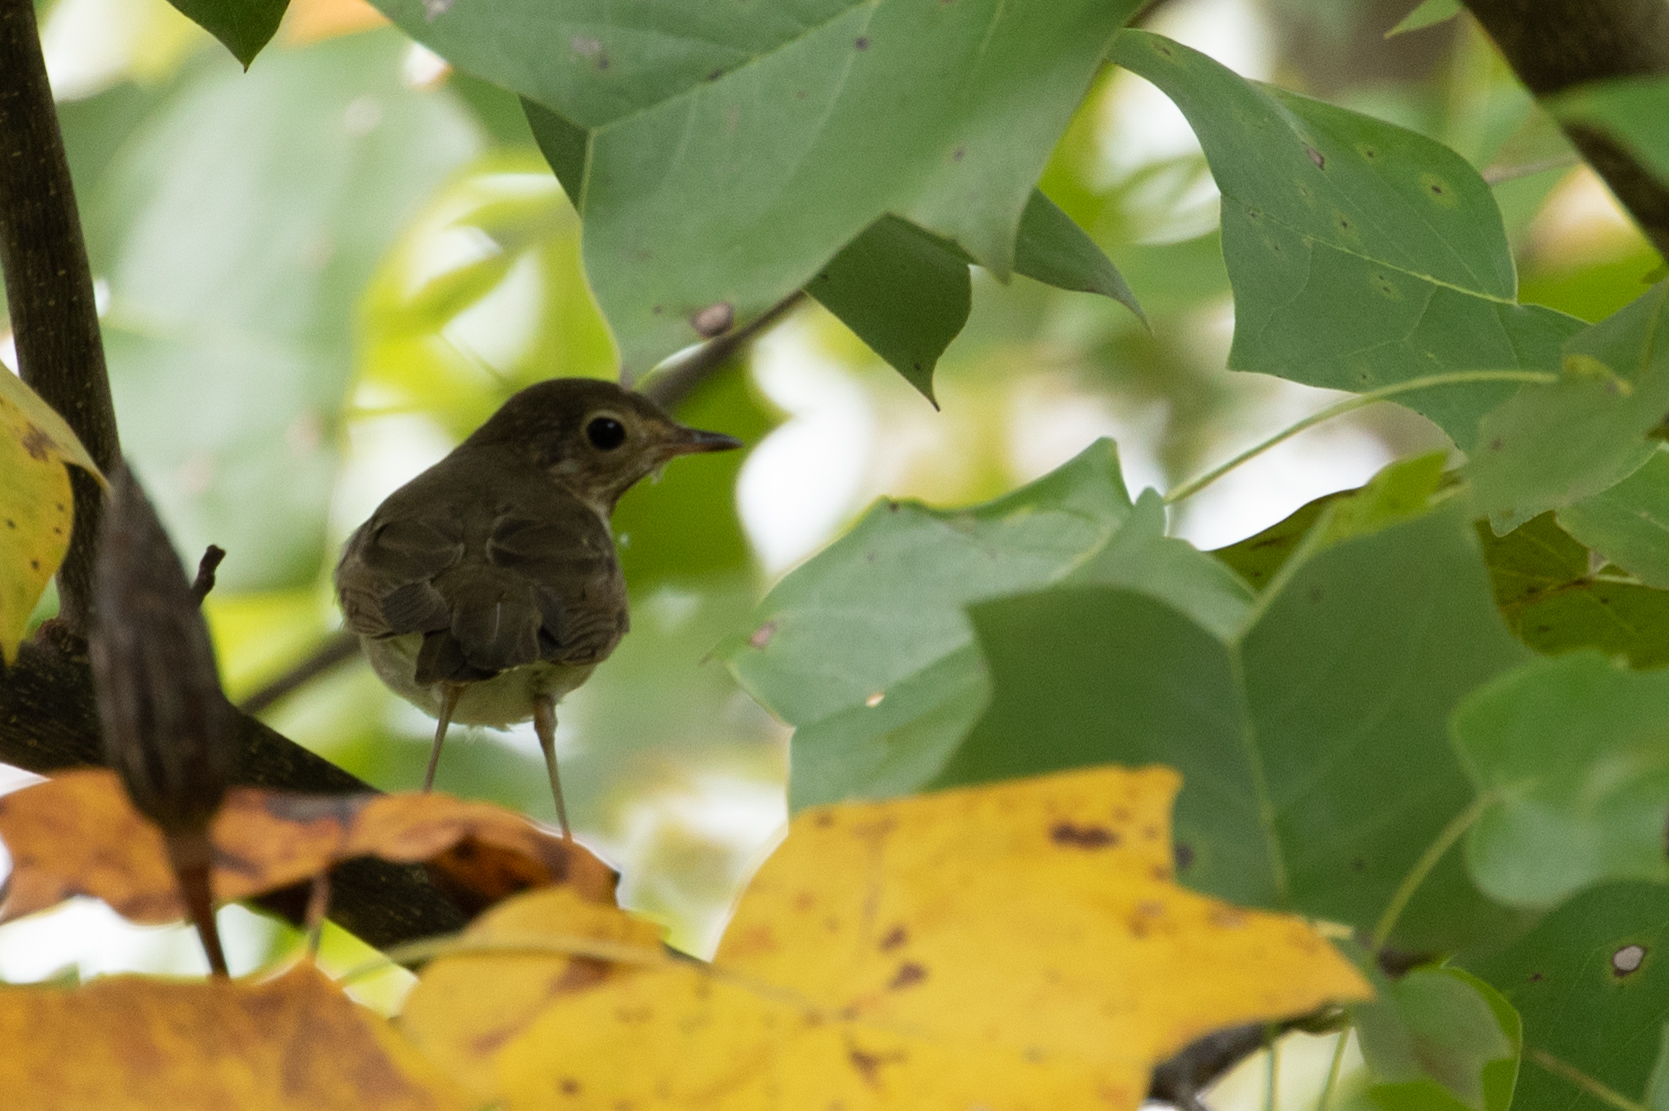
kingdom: Animalia
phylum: Chordata
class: Aves
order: Passeriformes
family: Turdidae
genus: Catharus
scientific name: Catharus ustulatus
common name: Swainson's thrush
